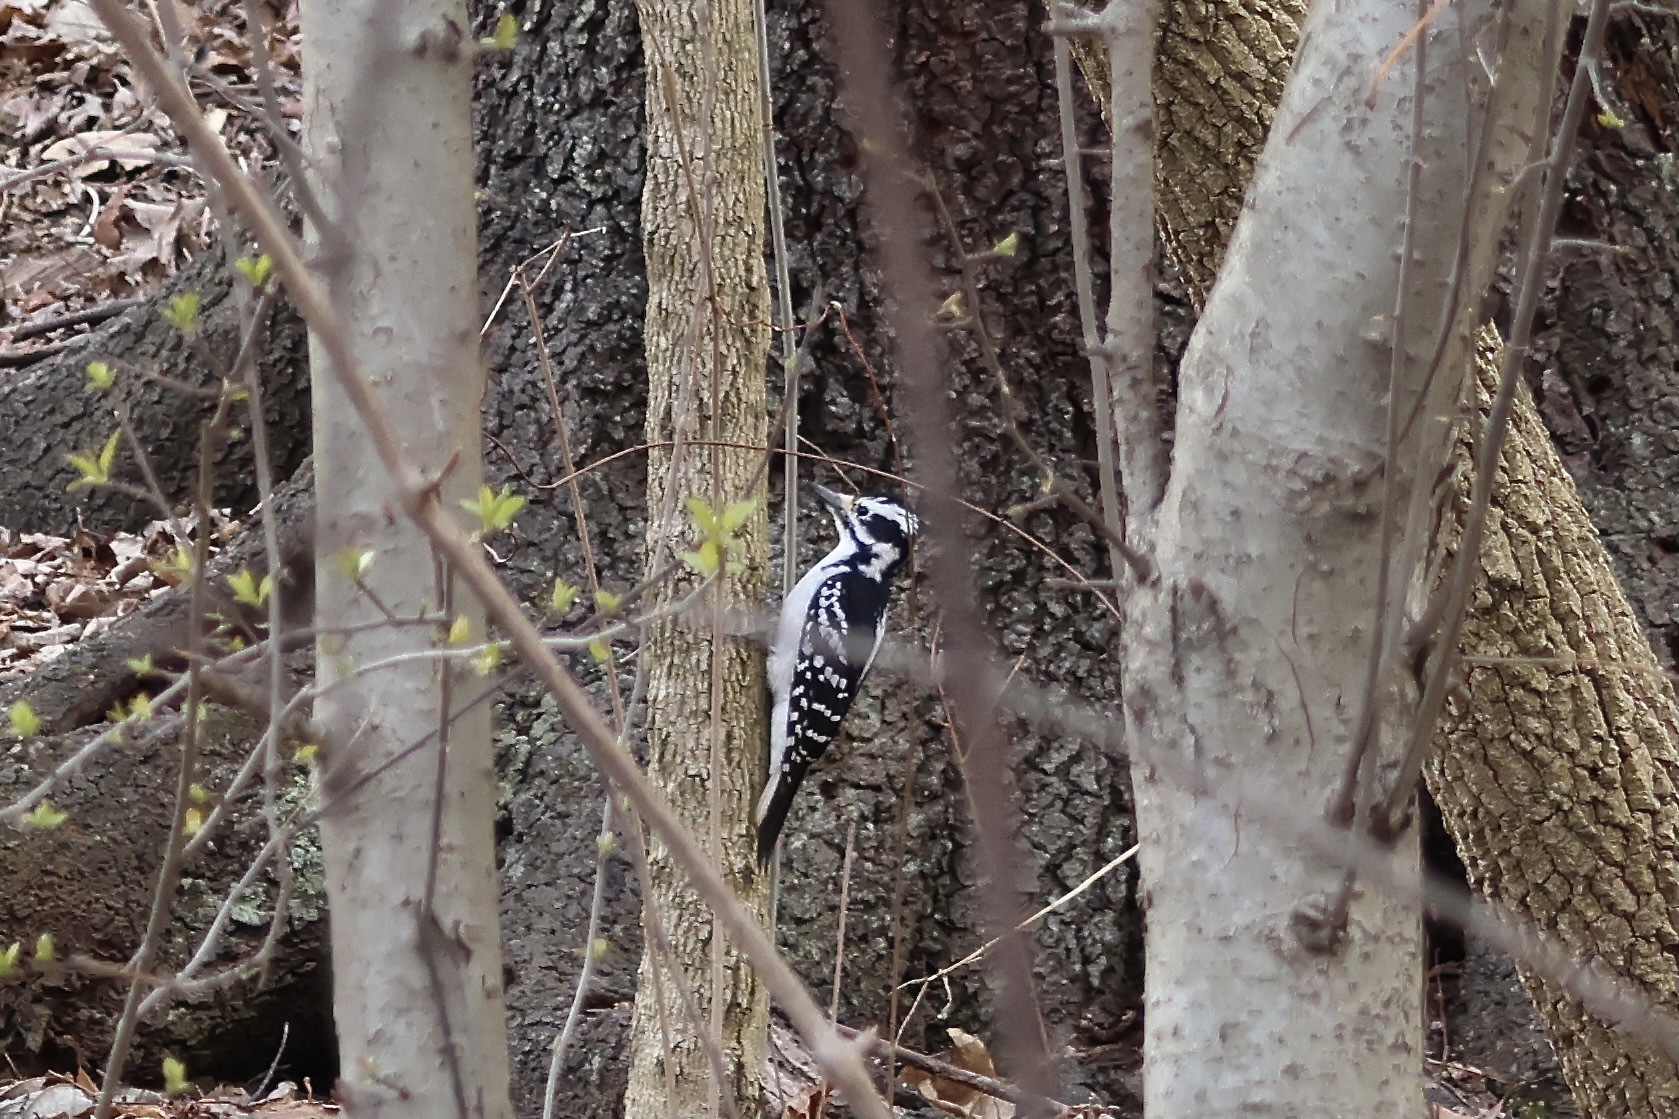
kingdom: Animalia
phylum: Chordata
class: Aves
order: Piciformes
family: Picidae
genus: Leuconotopicus
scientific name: Leuconotopicus villosus
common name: Hairy woodpecker
